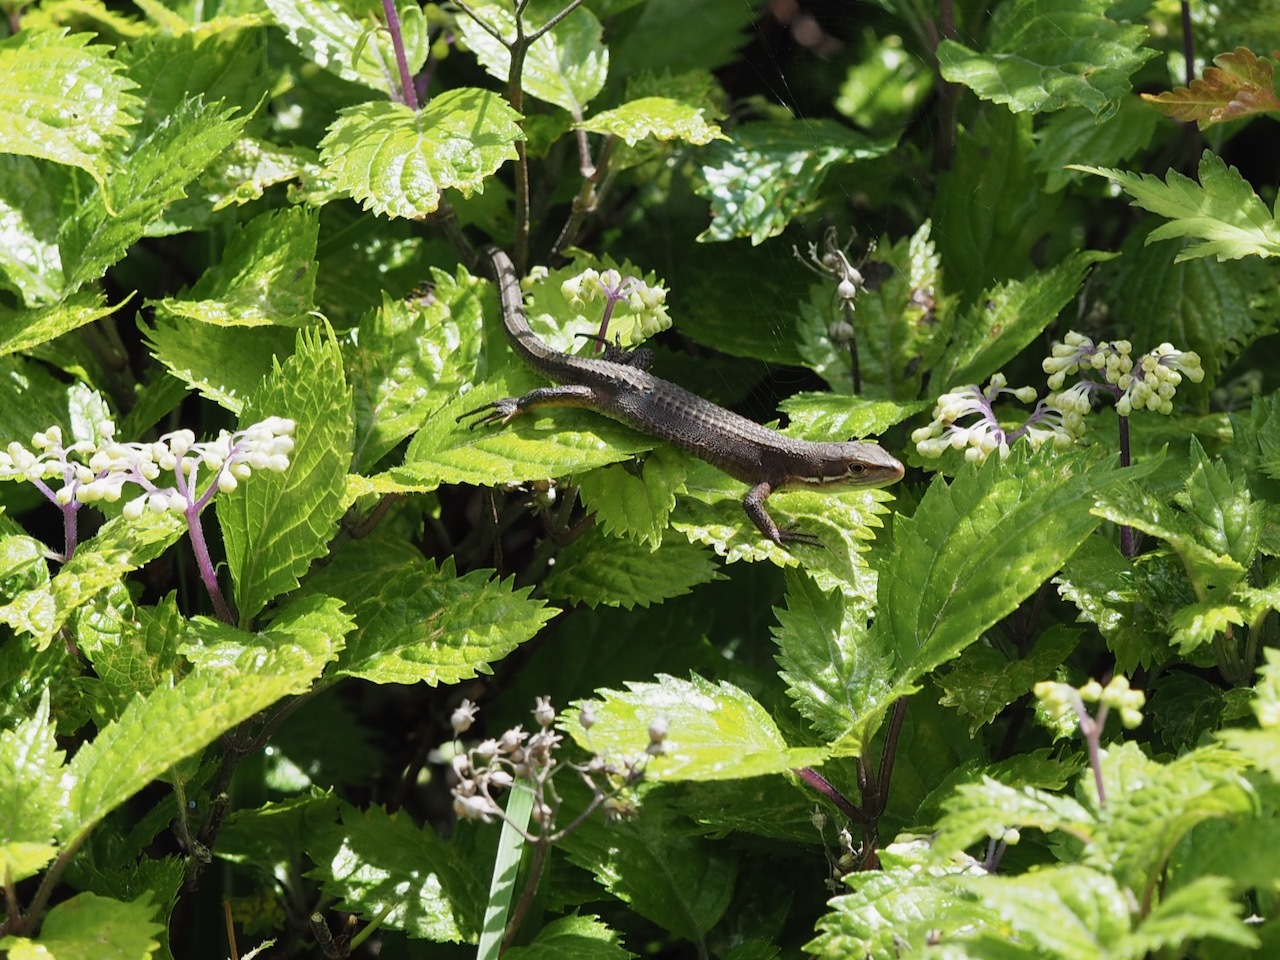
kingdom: Animalia
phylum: Chordata
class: Squamata
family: Lacertidae
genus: Takydromus
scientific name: Takydromus tachydromoides
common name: Japanese grass lizard
